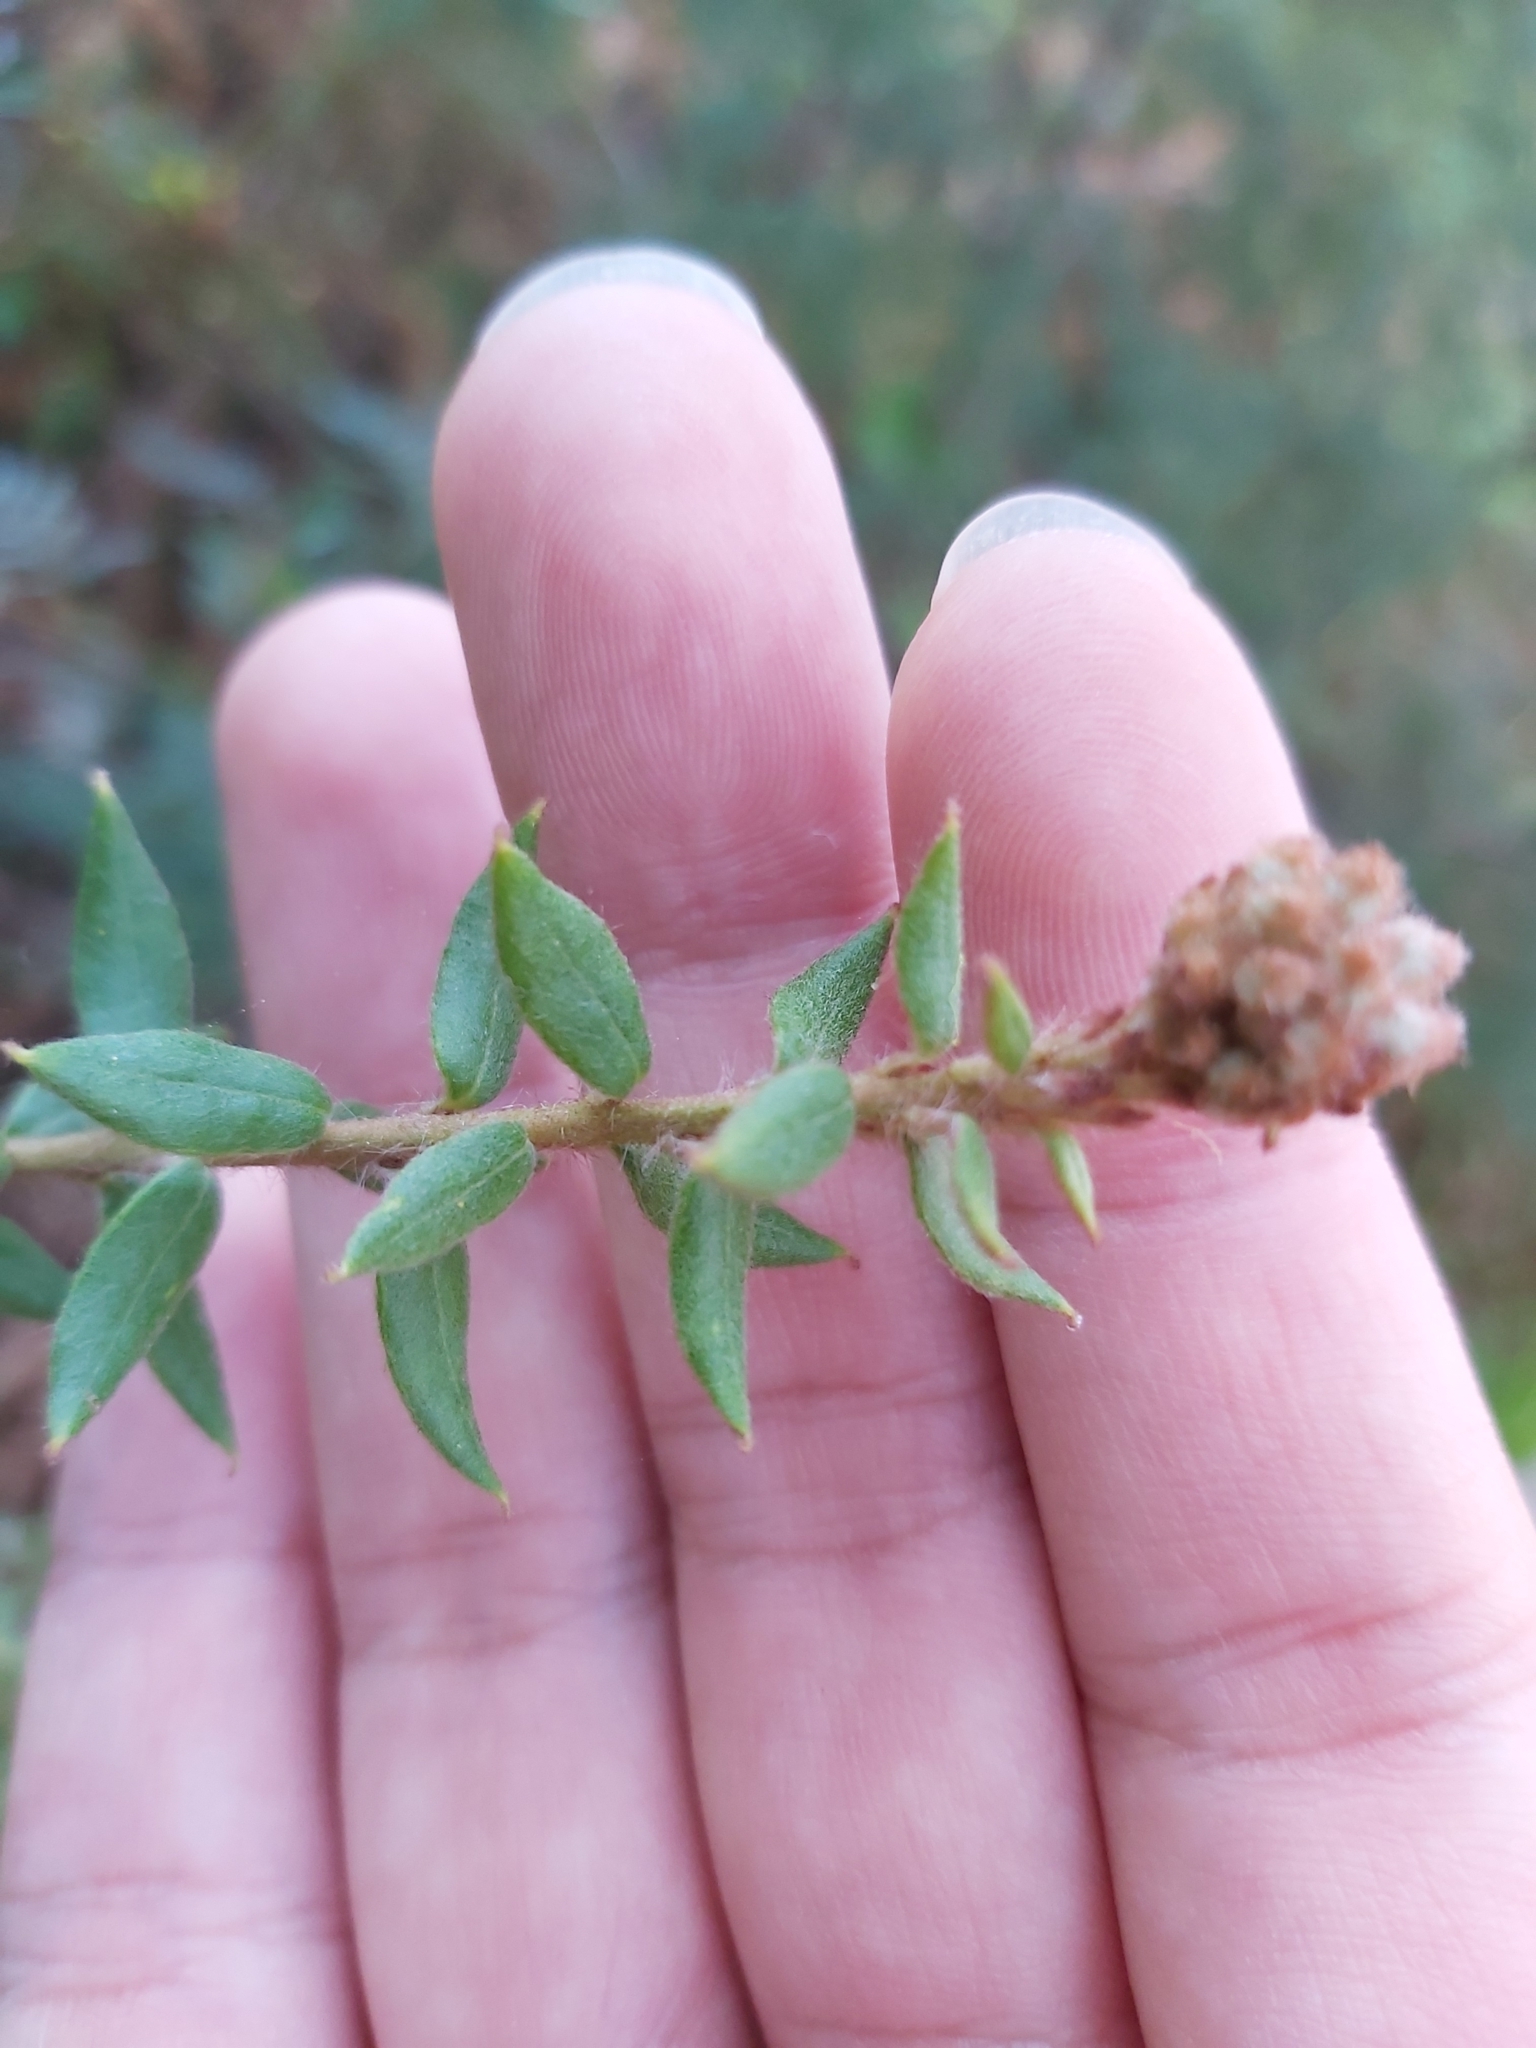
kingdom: Plantae
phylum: Tracheophyta
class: Magnoliopsida
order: Proteales
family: Proteaceae
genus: Grevillea
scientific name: Grevillea buxifolia
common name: Grey spiderflower
